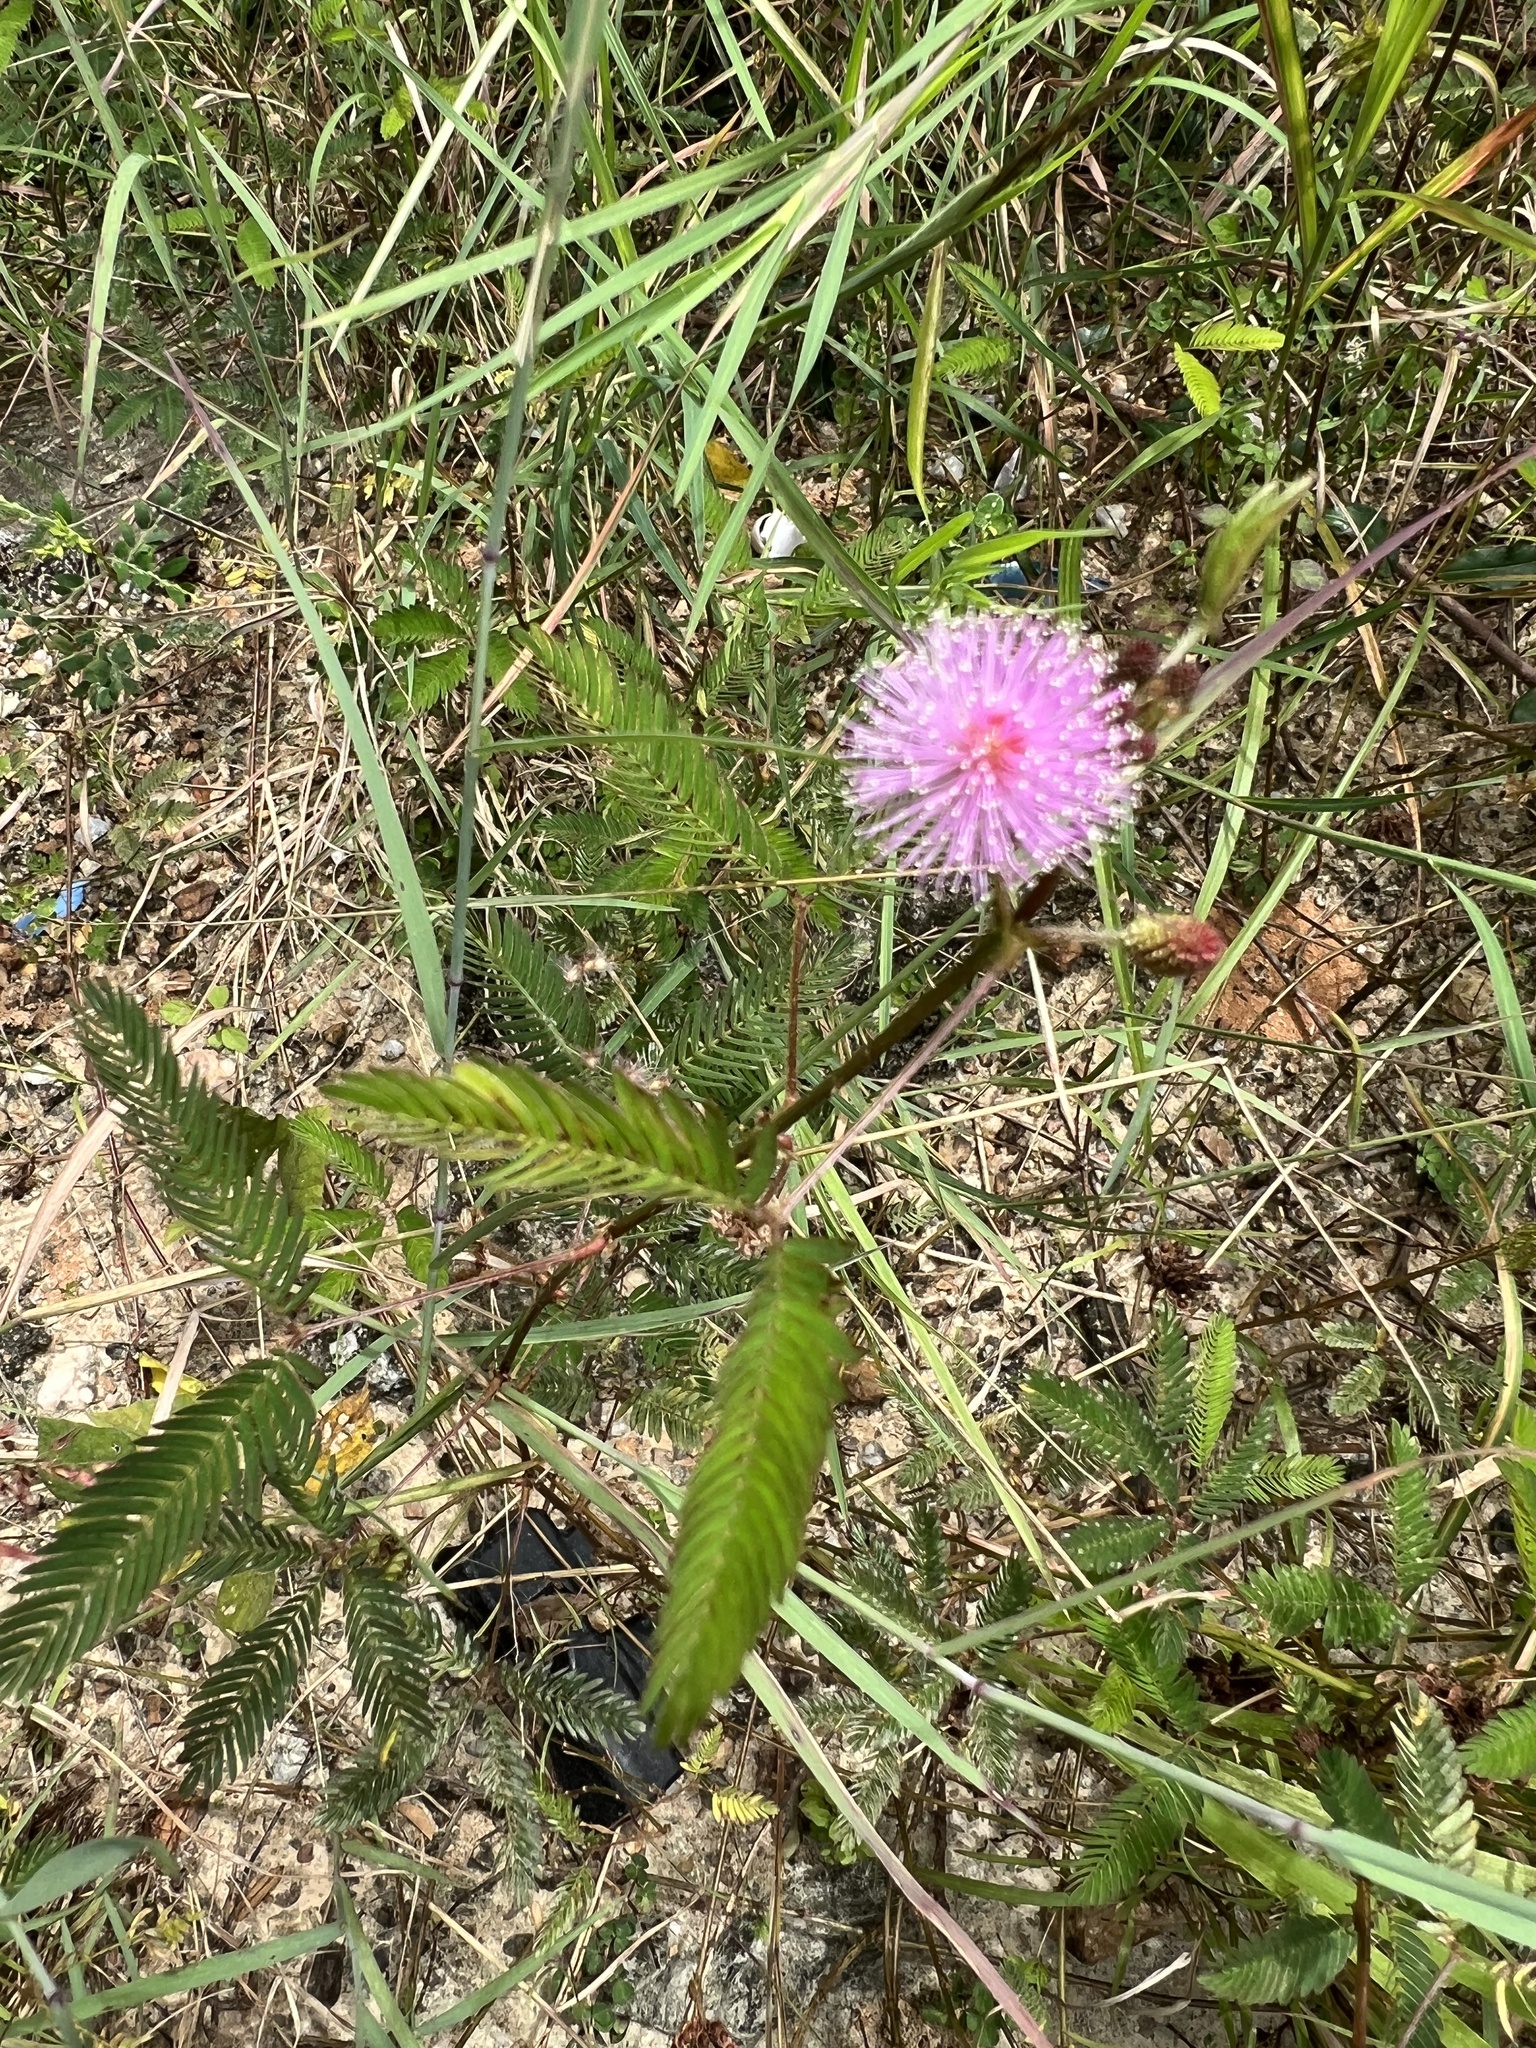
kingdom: Plantae
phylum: Tracheophyta
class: Magnoliopsida
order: Fabales
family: Fabaceae
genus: Mimosa
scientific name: Mimosa pudica
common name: Sensitive plant
